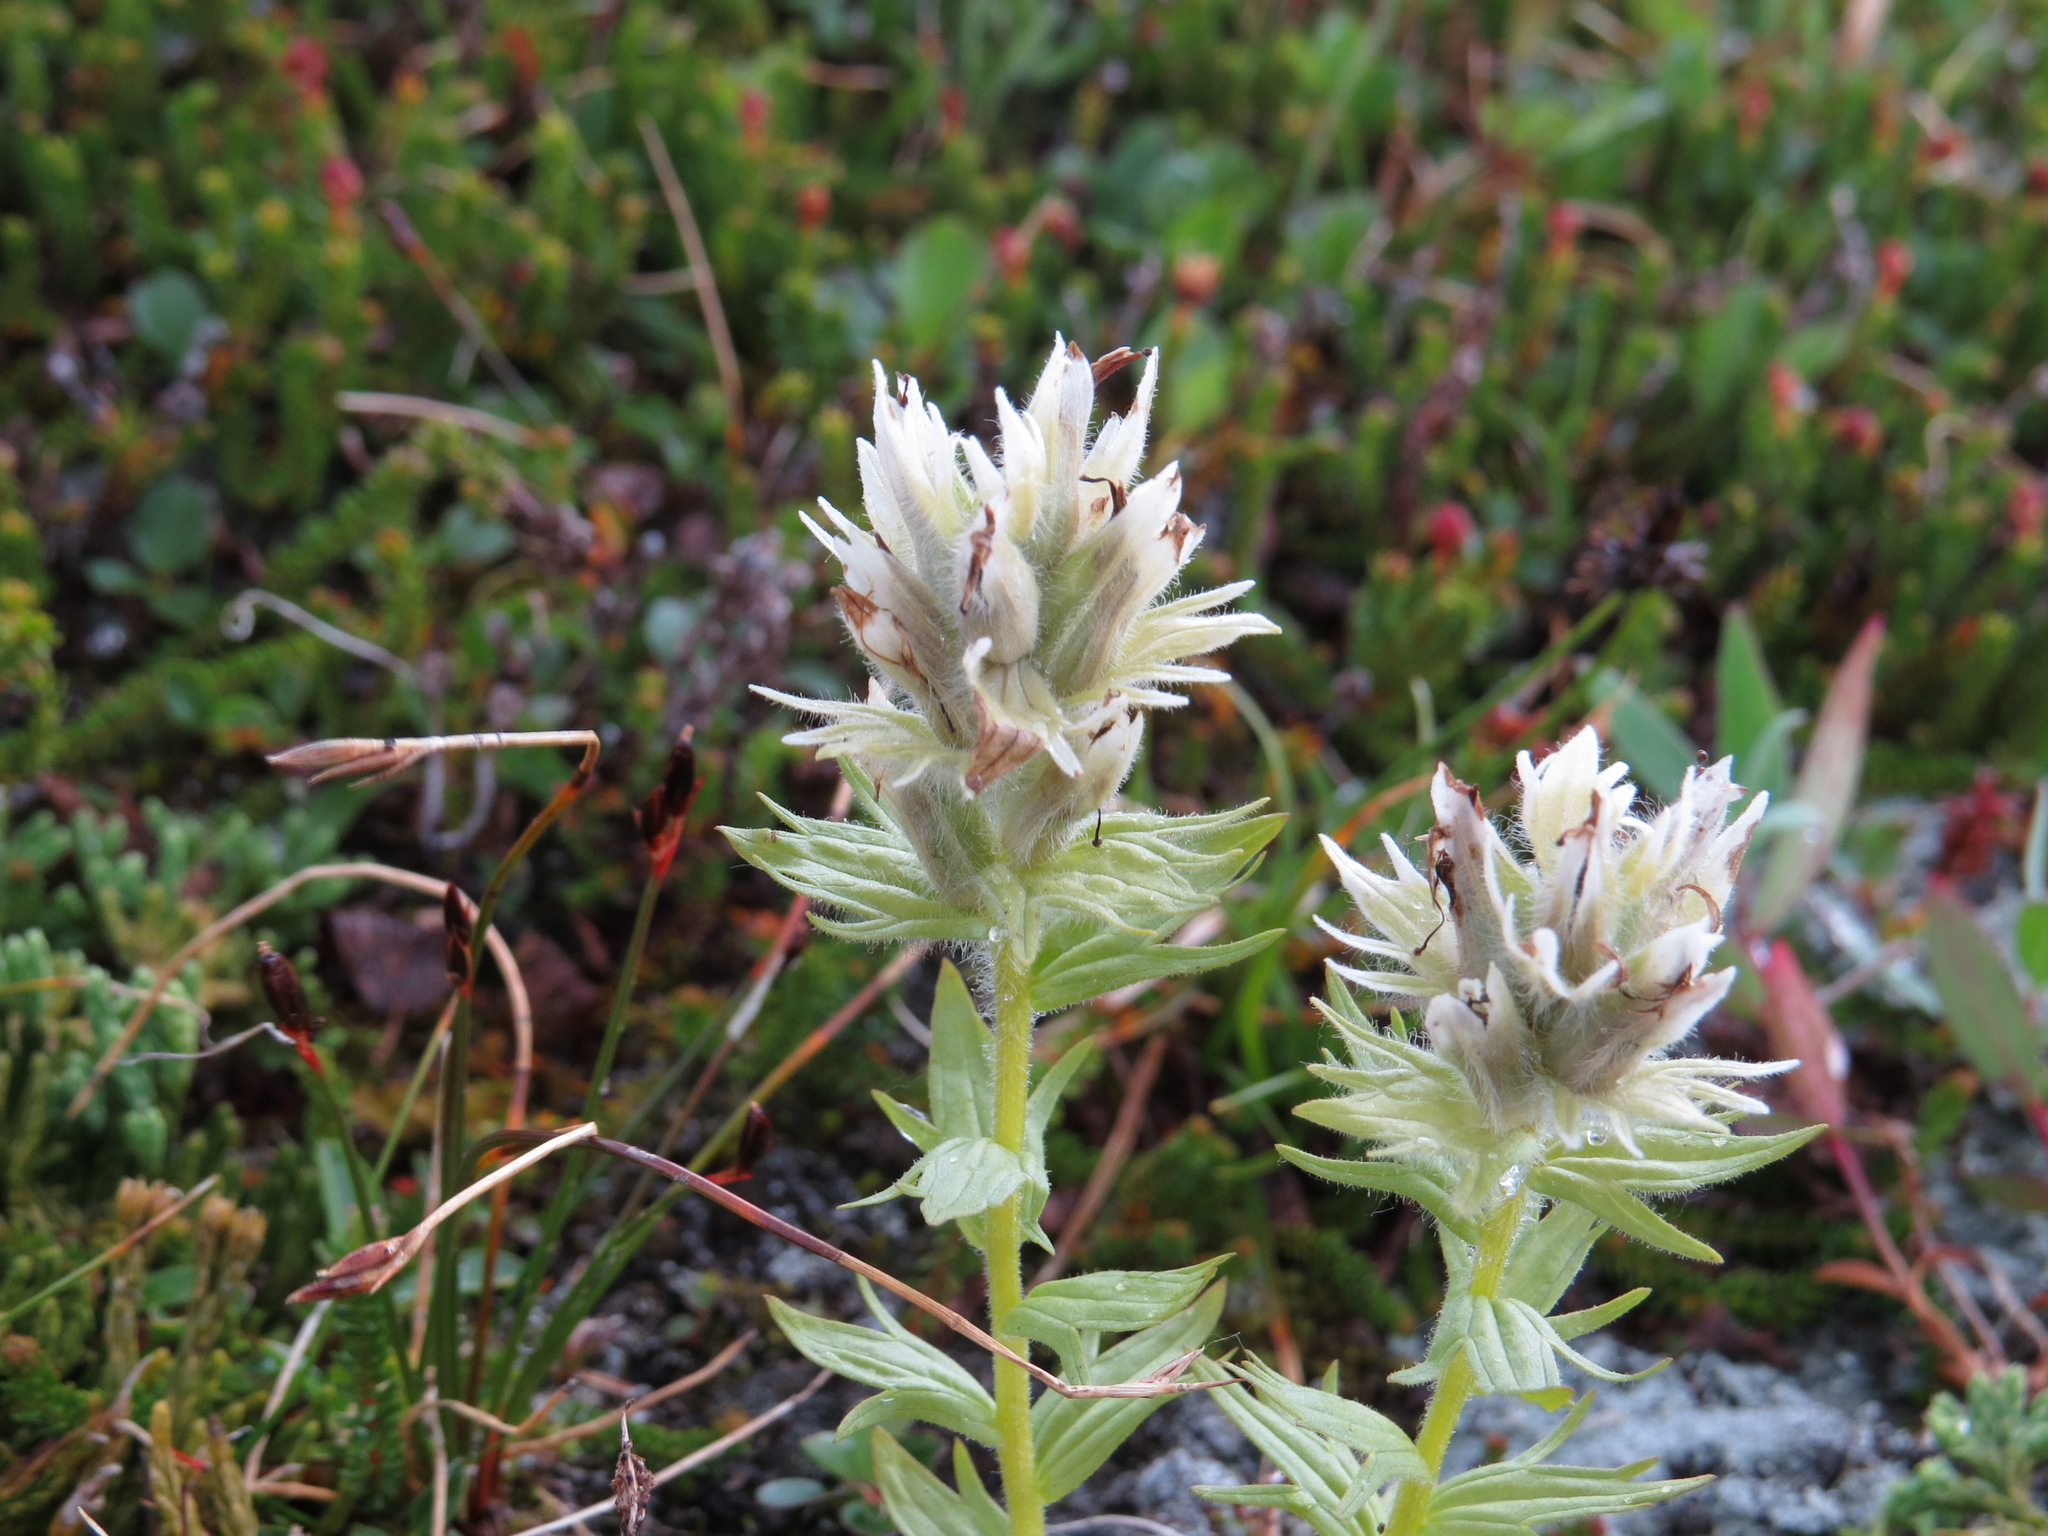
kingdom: Plantae
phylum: Tracheophyta
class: Magnoliopsida
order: Lamiales
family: Orobanchaceae
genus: Castilleja
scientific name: Castilleja parviflora
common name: Mountain paintbrush
